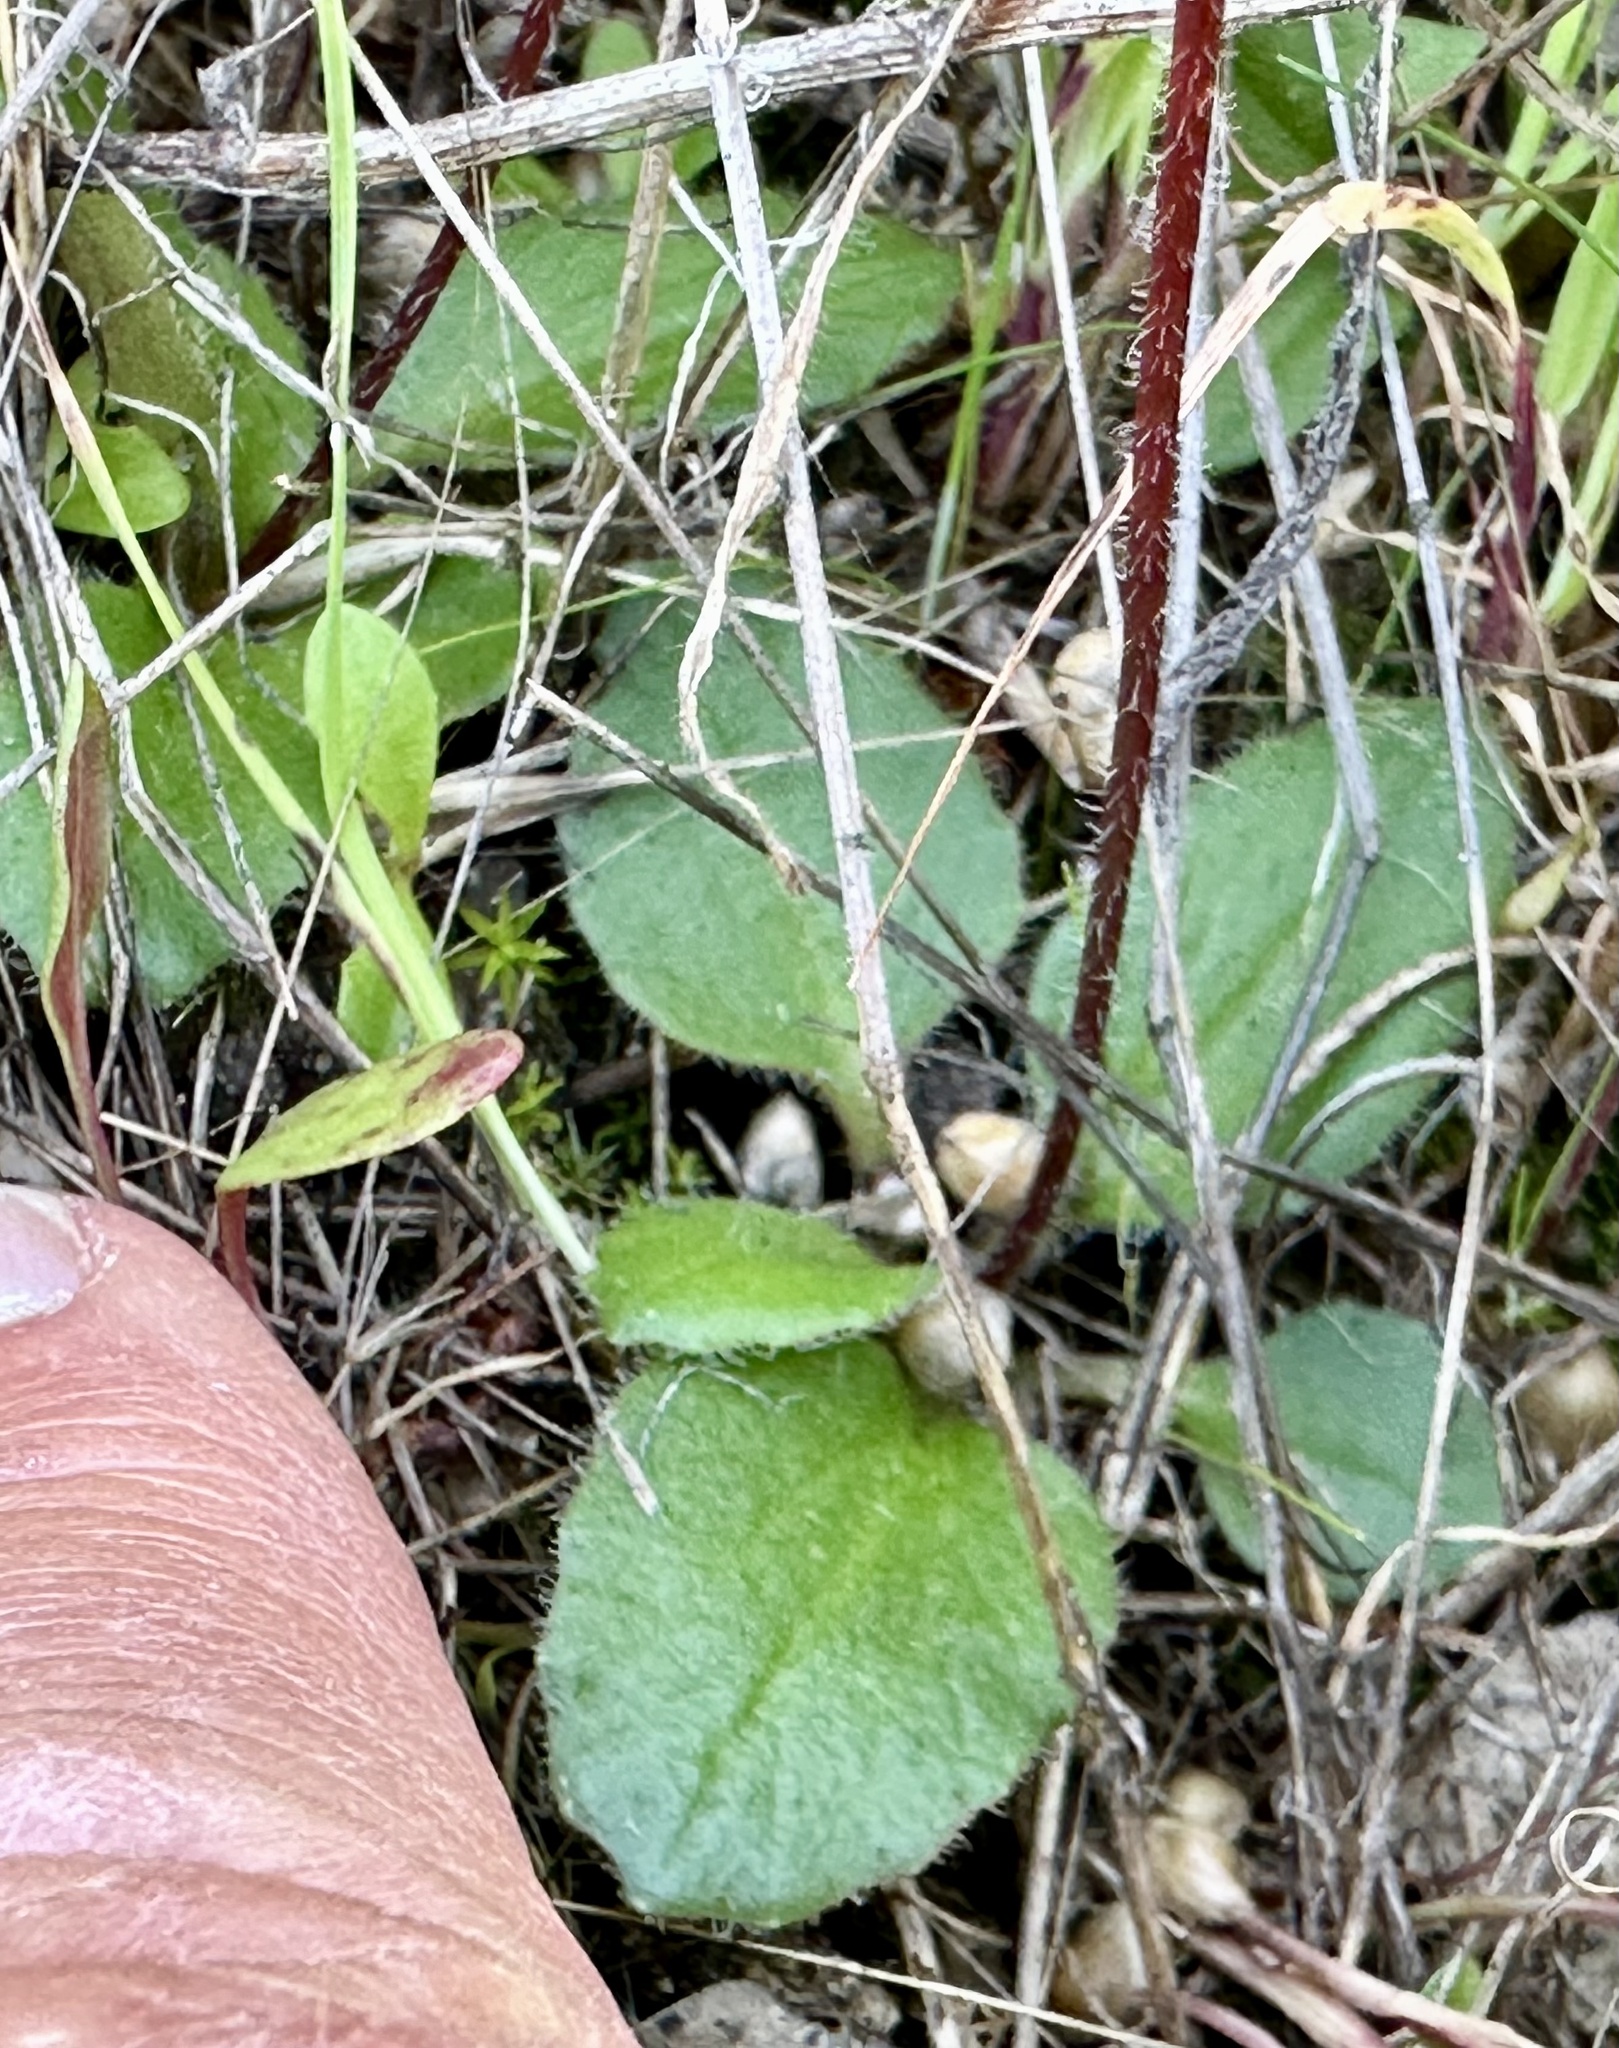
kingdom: Plantae
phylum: Tracheophyta
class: Magnoliopsida
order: Saxifragales
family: Saxifragaceae
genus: Micranthes
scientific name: Micranthes californica
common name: California saxifrage
